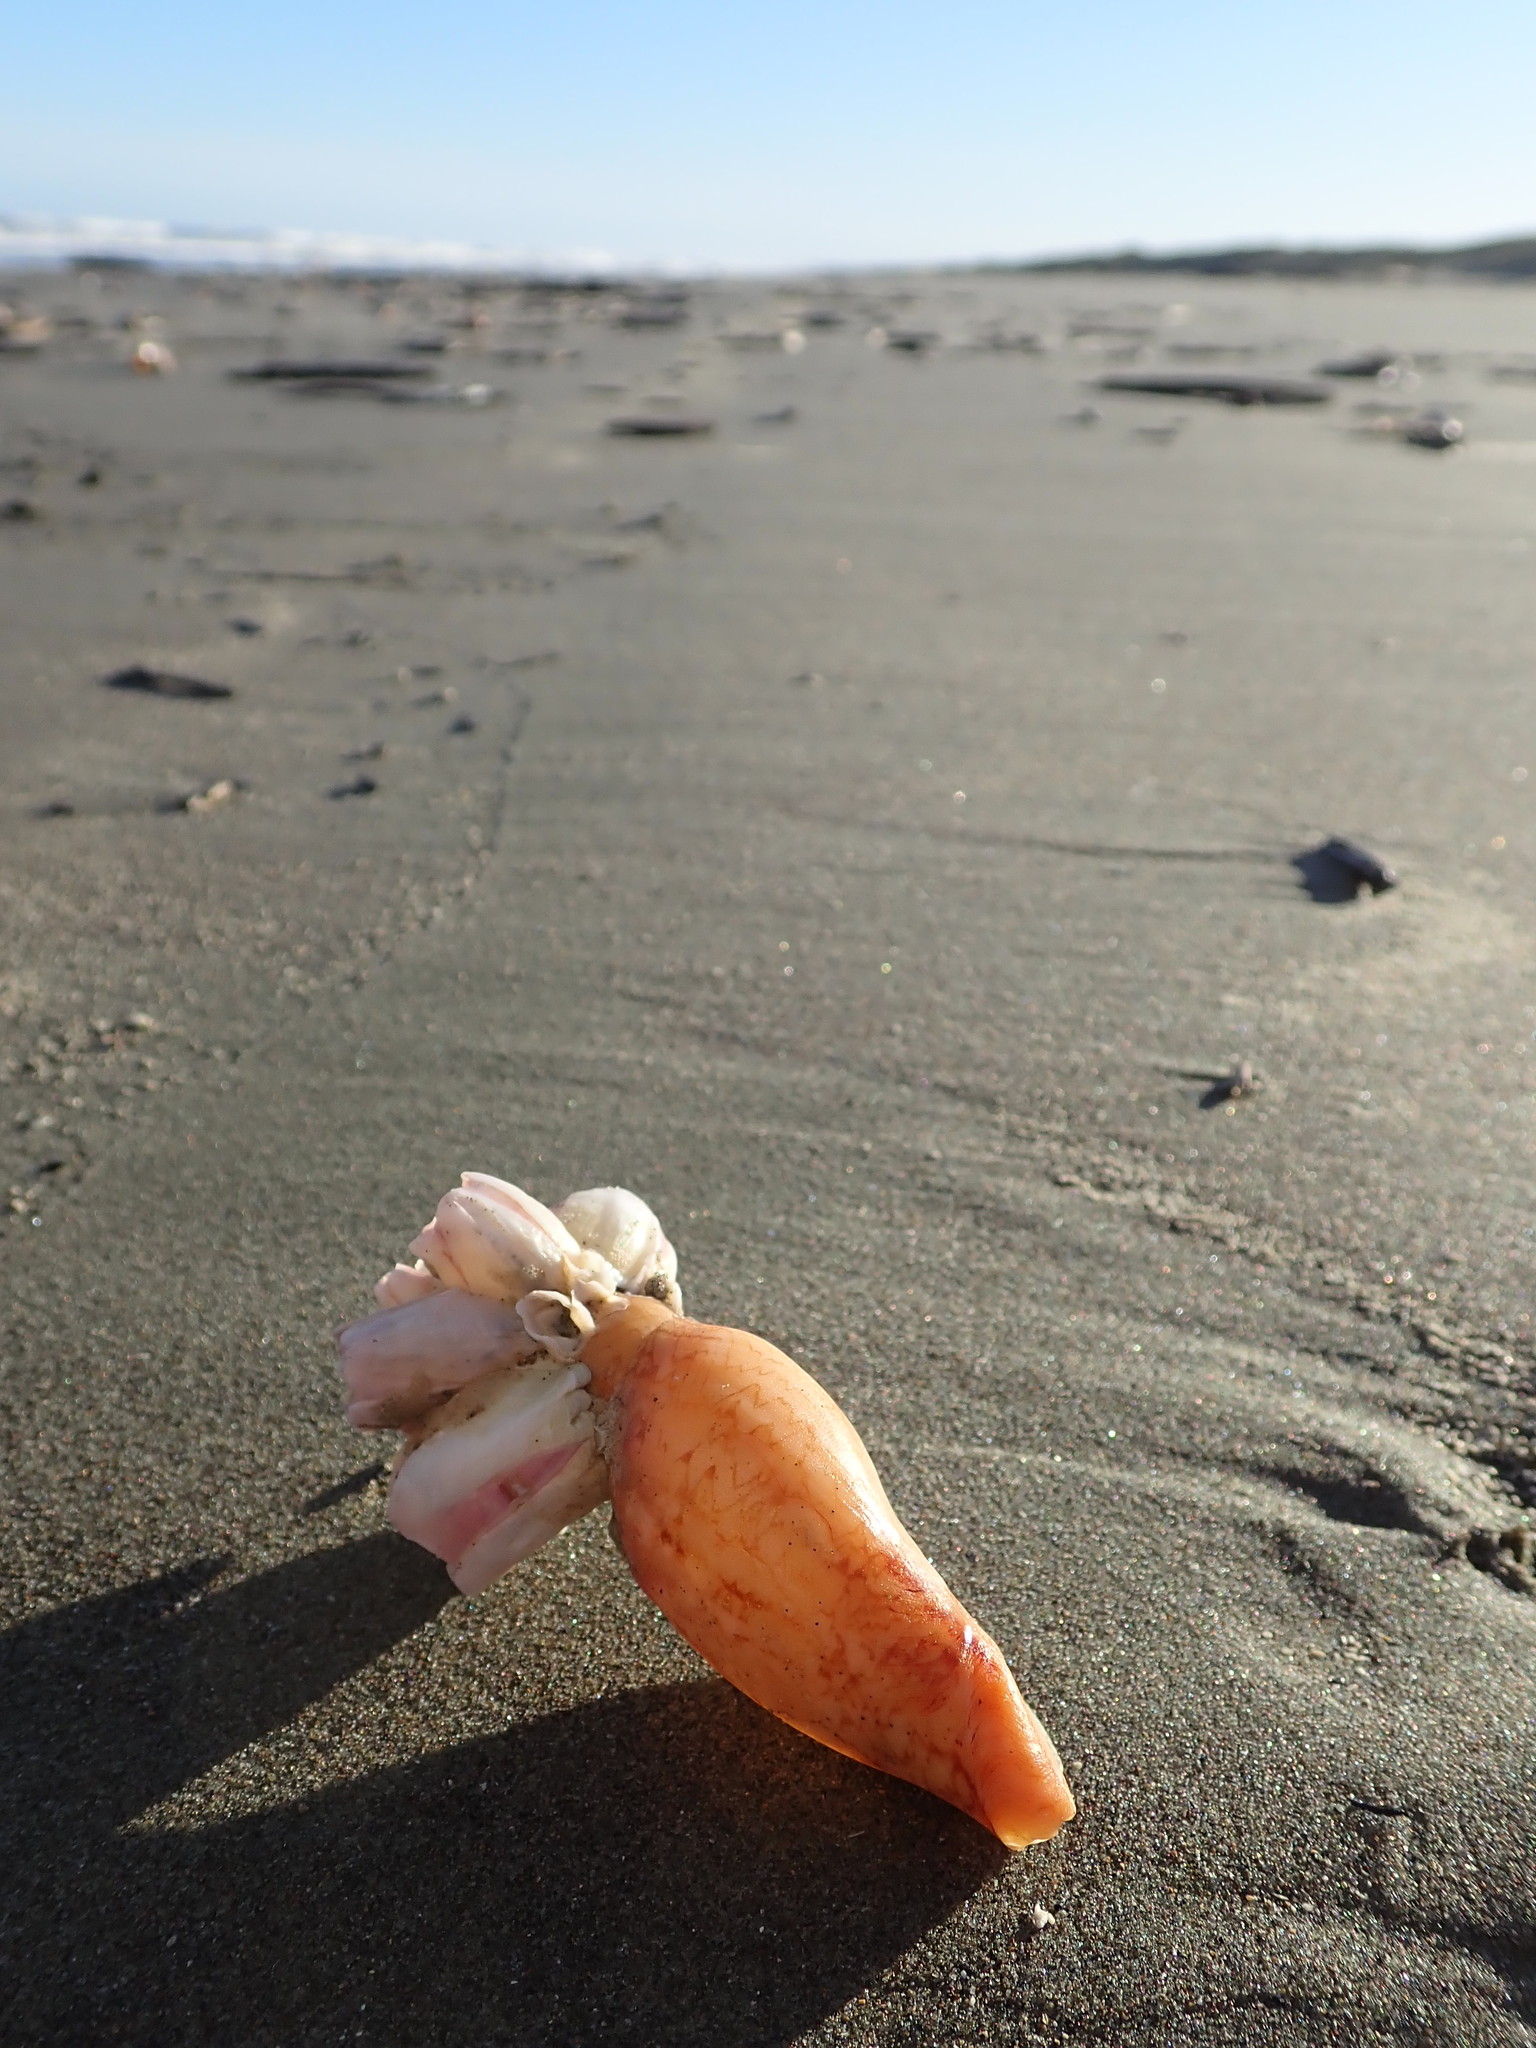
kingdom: Animalia
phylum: Arthropoda
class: Maxillopoda
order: Sessilia
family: Balanidae
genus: Notomegabalanus
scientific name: Notomegabalanus decorus
